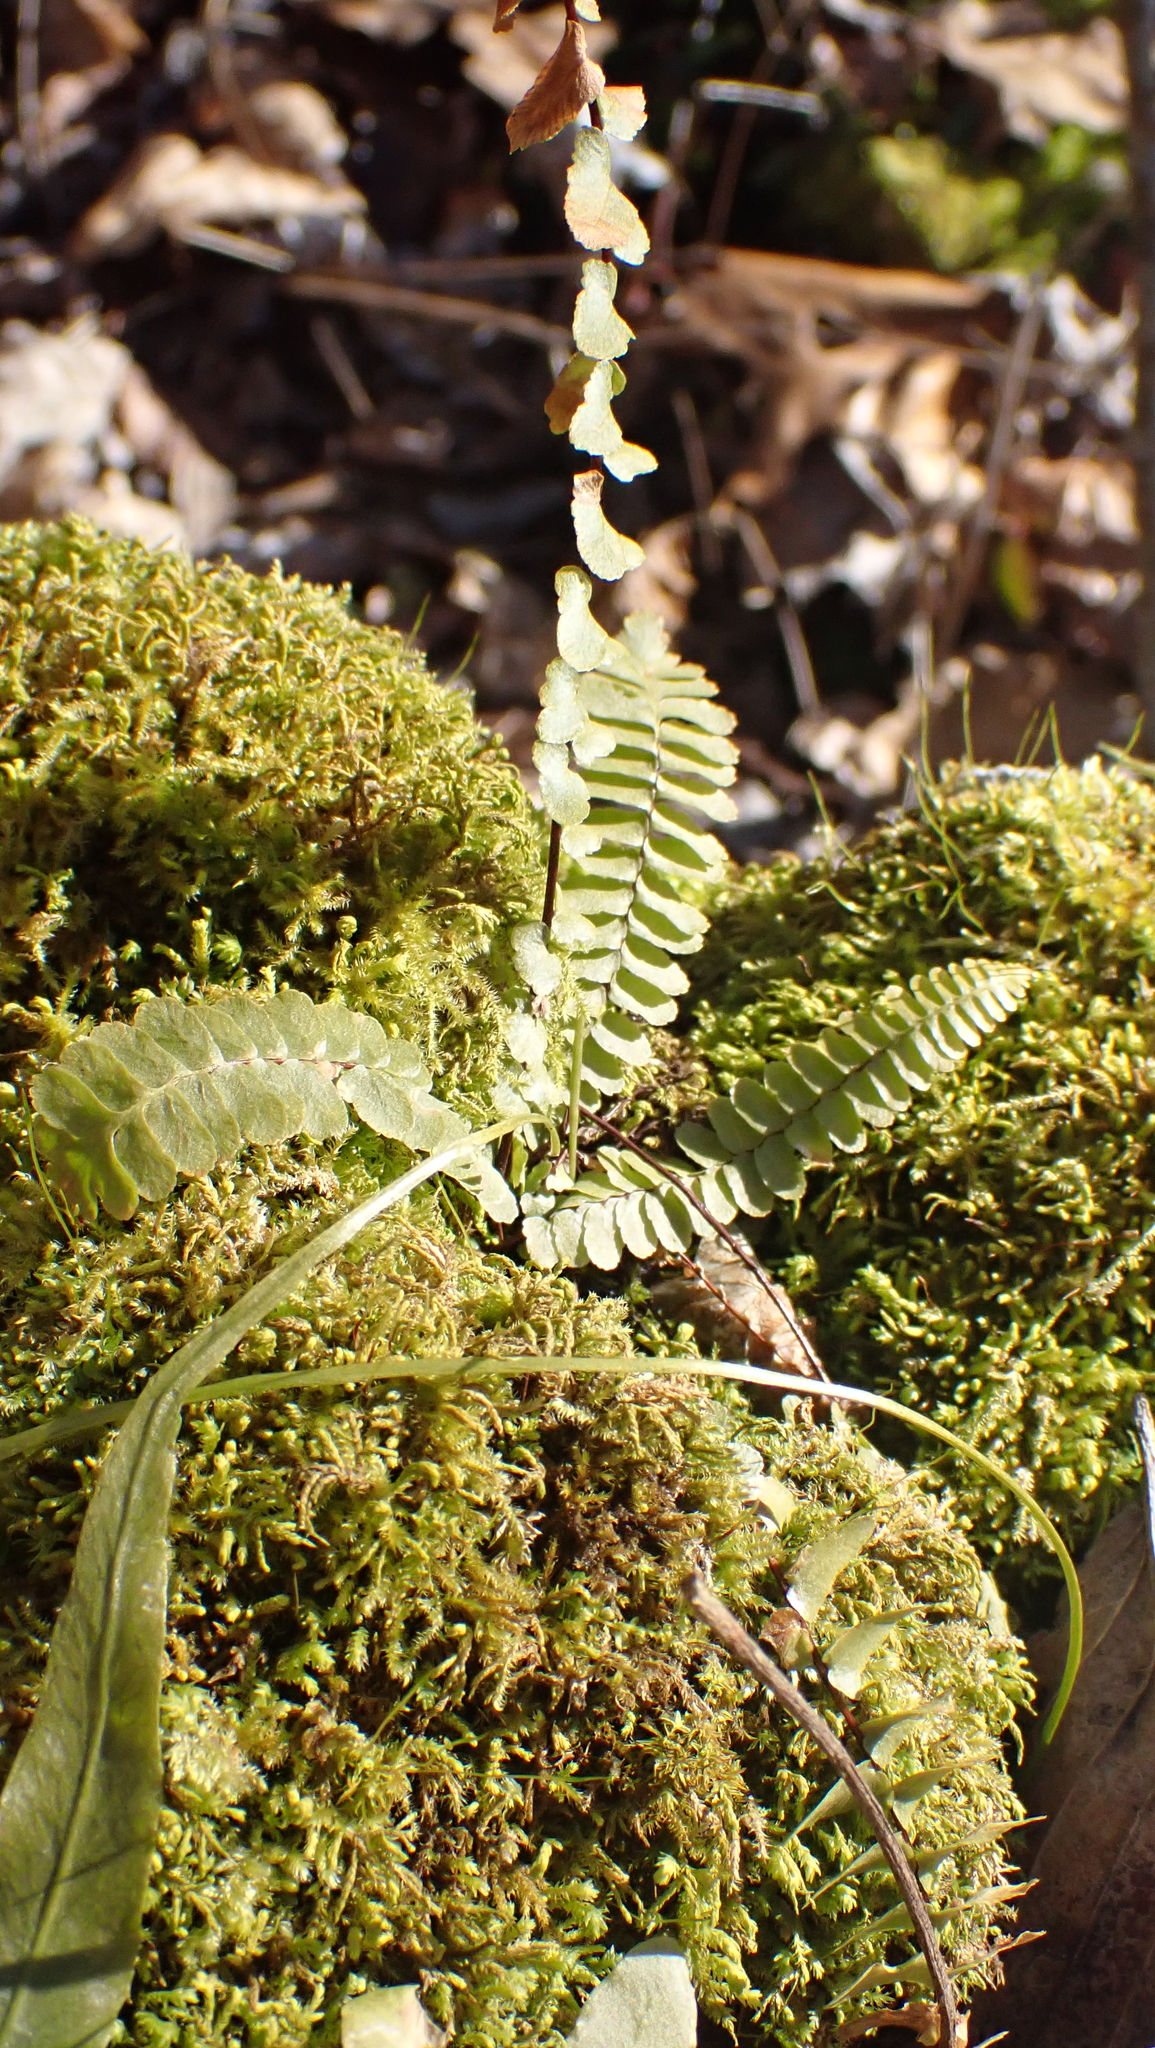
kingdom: Plantae
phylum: Tracheophyta
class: Polypodiopsida
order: Polypodiales
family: Aspleniaceae
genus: Asplenium
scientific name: Asplenium platyneuron
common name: Ebony spleenwort
